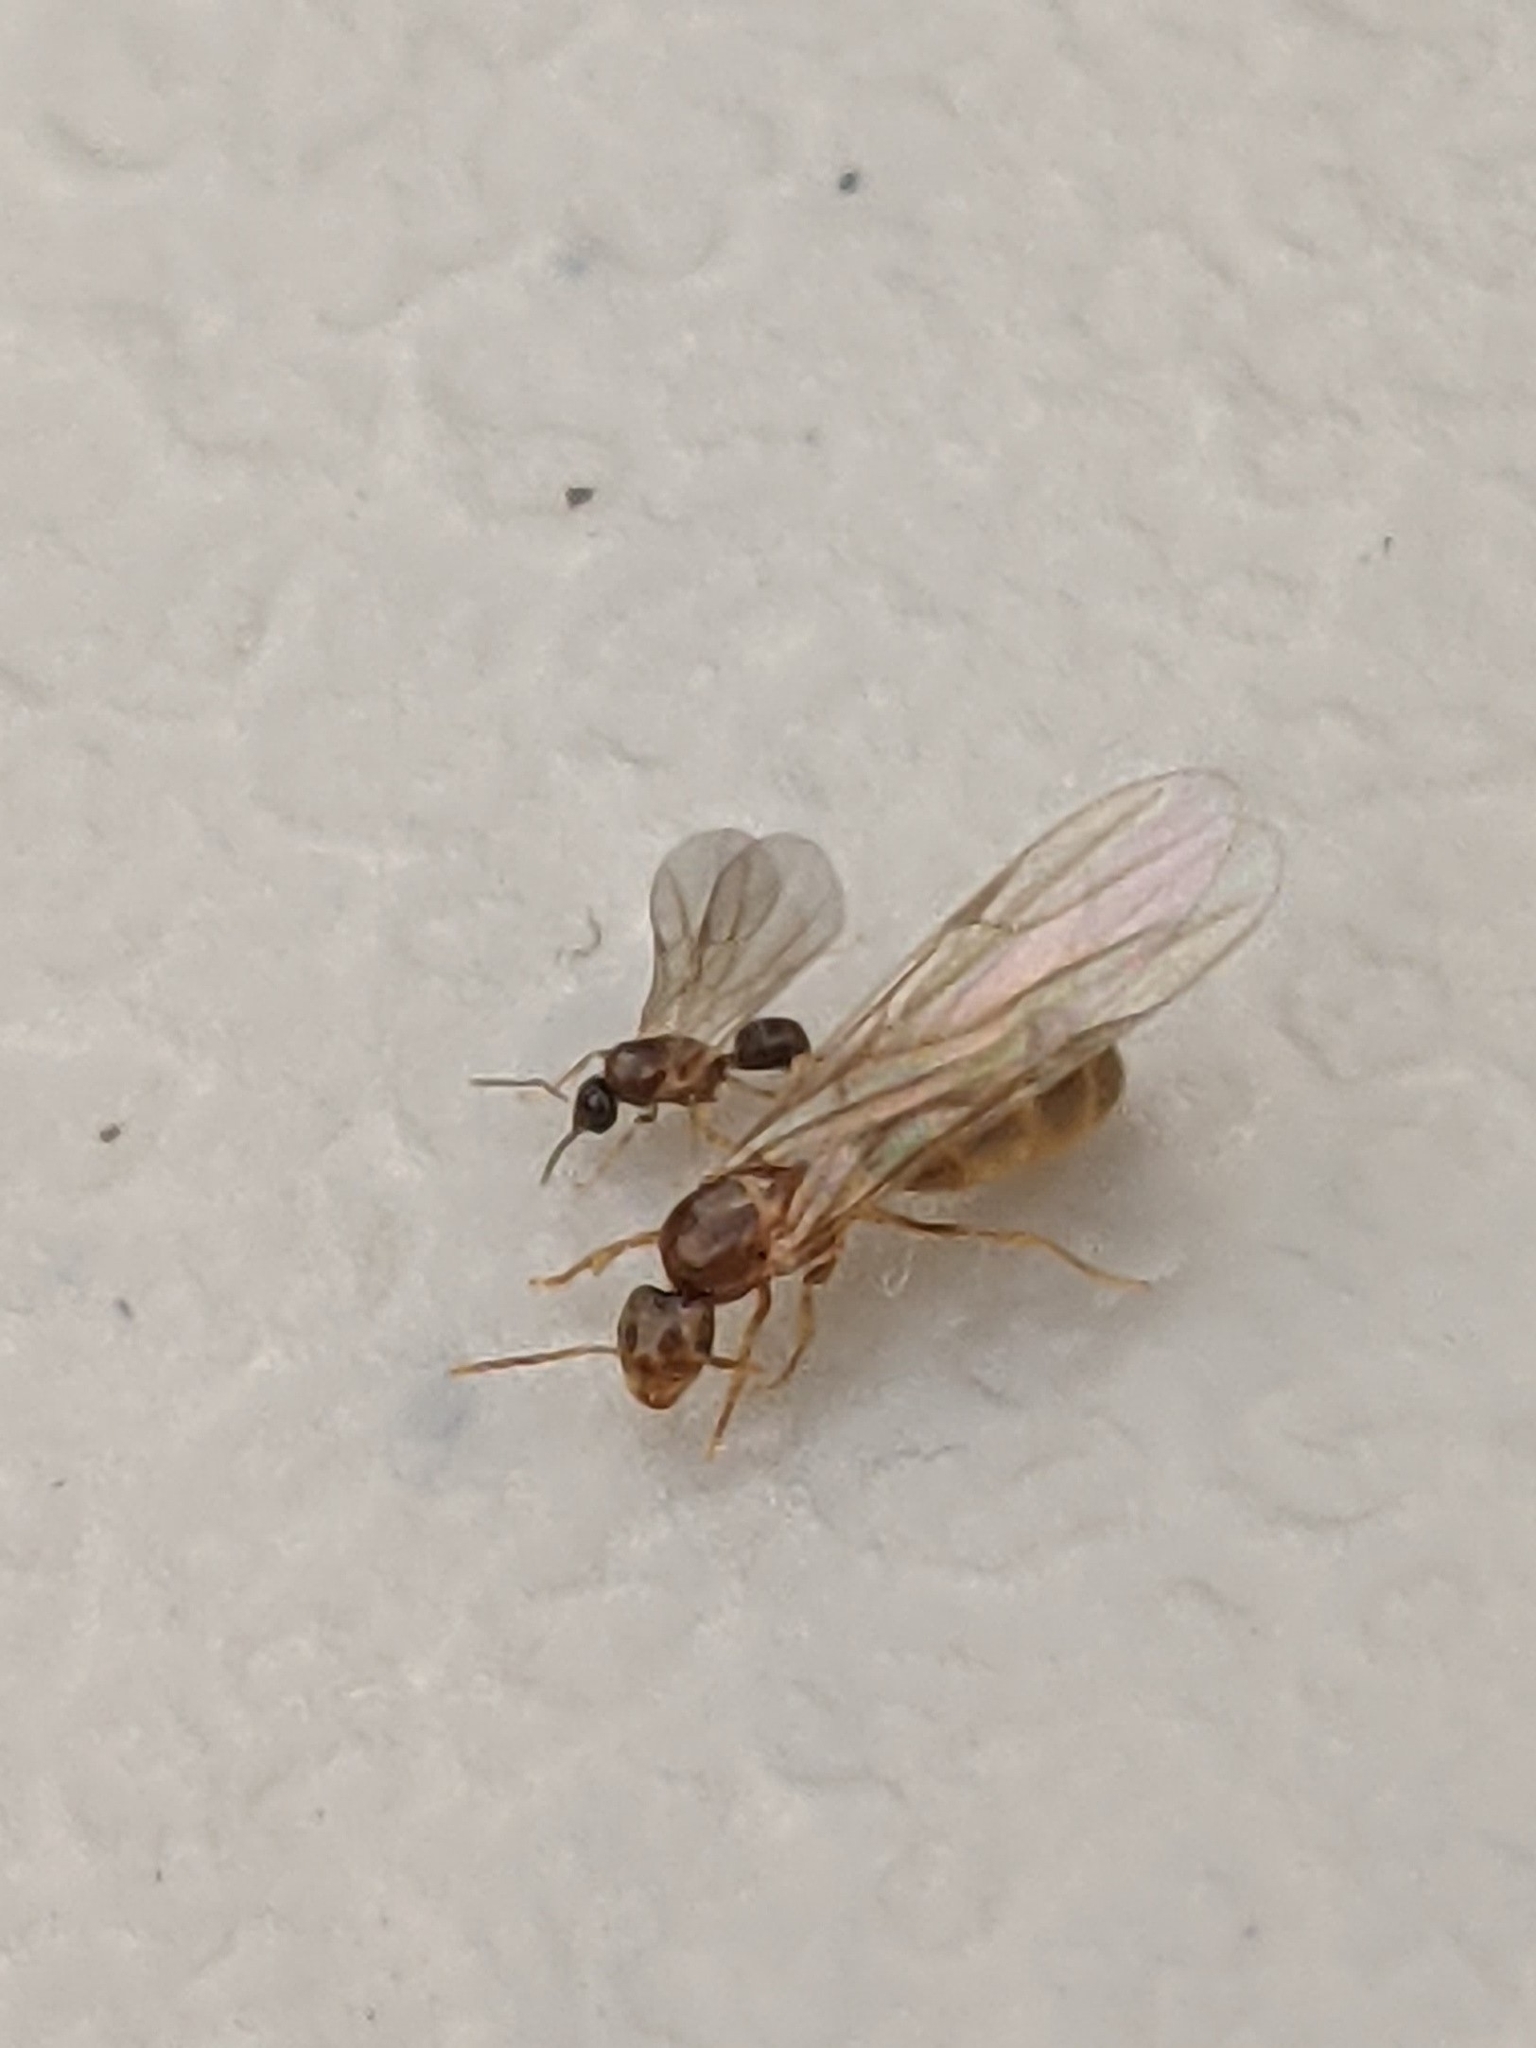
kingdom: Animalia
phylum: Arthropoda
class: Insecta
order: Hymenoptera
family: Formicidae
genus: Brachymyrmex
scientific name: Brachymyrmex depilis
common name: Hairless rover ant
